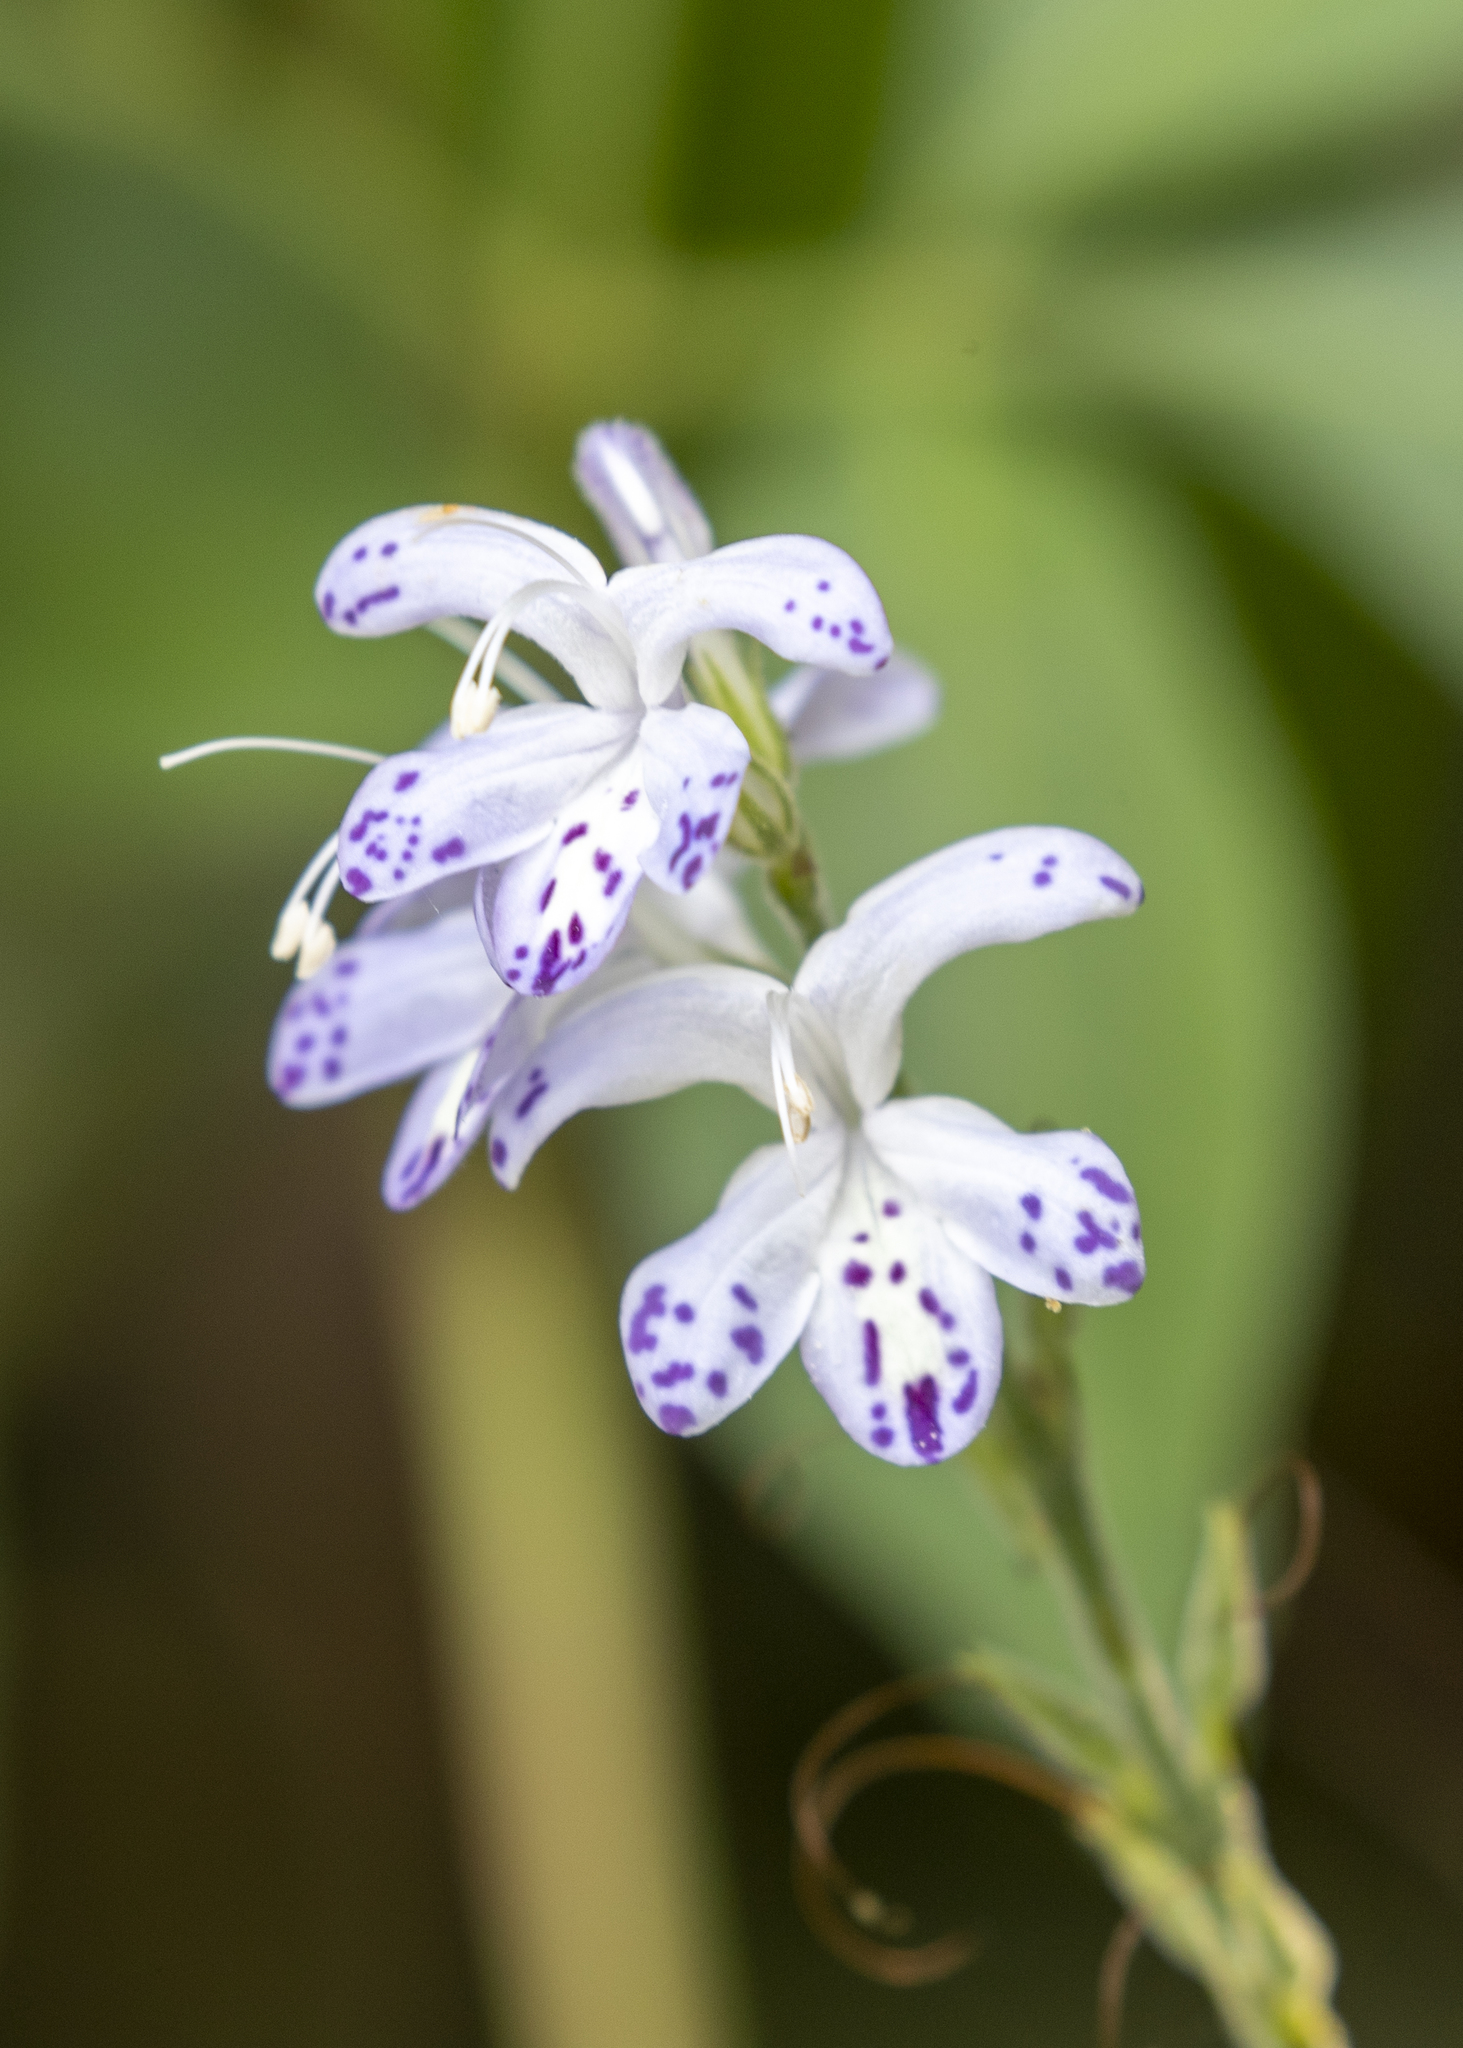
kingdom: Plantae
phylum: Tracheophyta
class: Magnoliopsida
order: Lamiales
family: Acanthaceae
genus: Pulchranthus
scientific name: Pulchranthus adenostachyus
